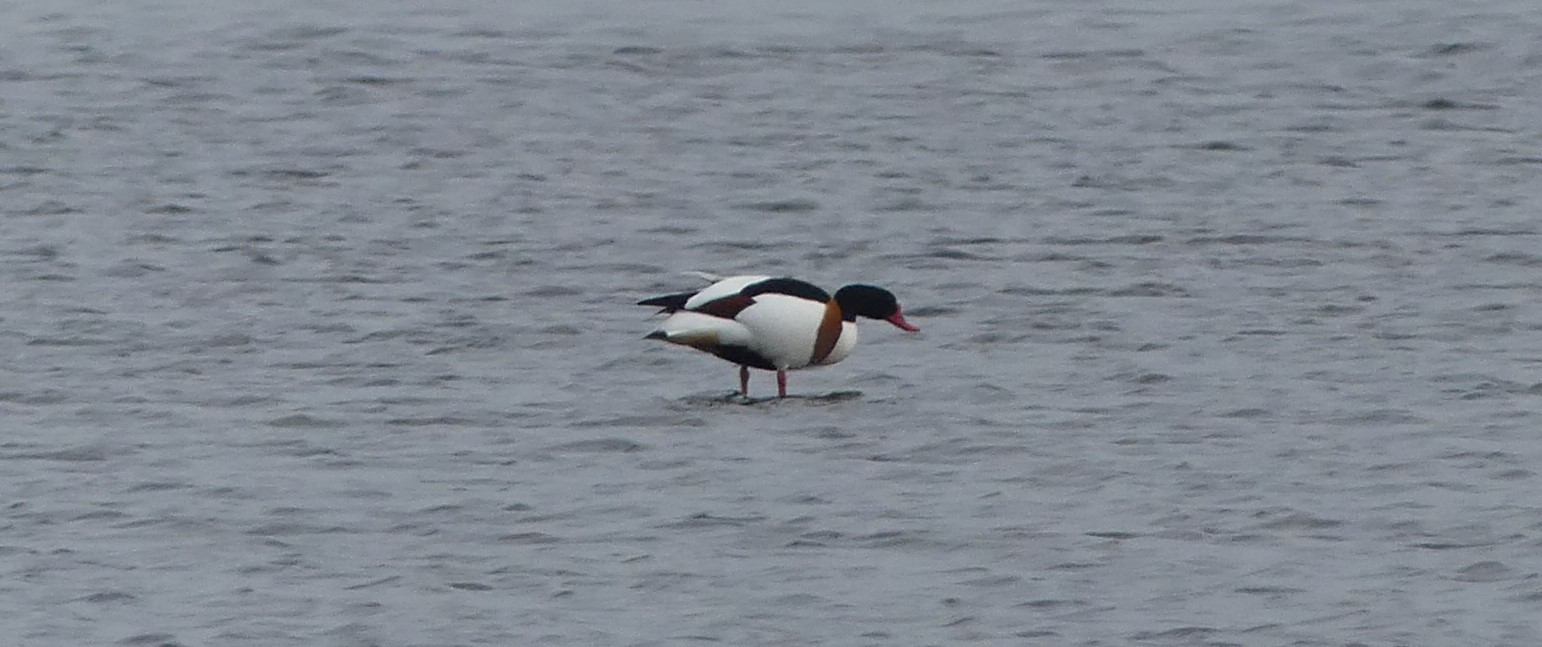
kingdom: Animalia
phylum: Chordata
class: Aves
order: Anseriformes
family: Anatidae
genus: Tadorna
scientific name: Tadorna tadorna
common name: Common shelduck
